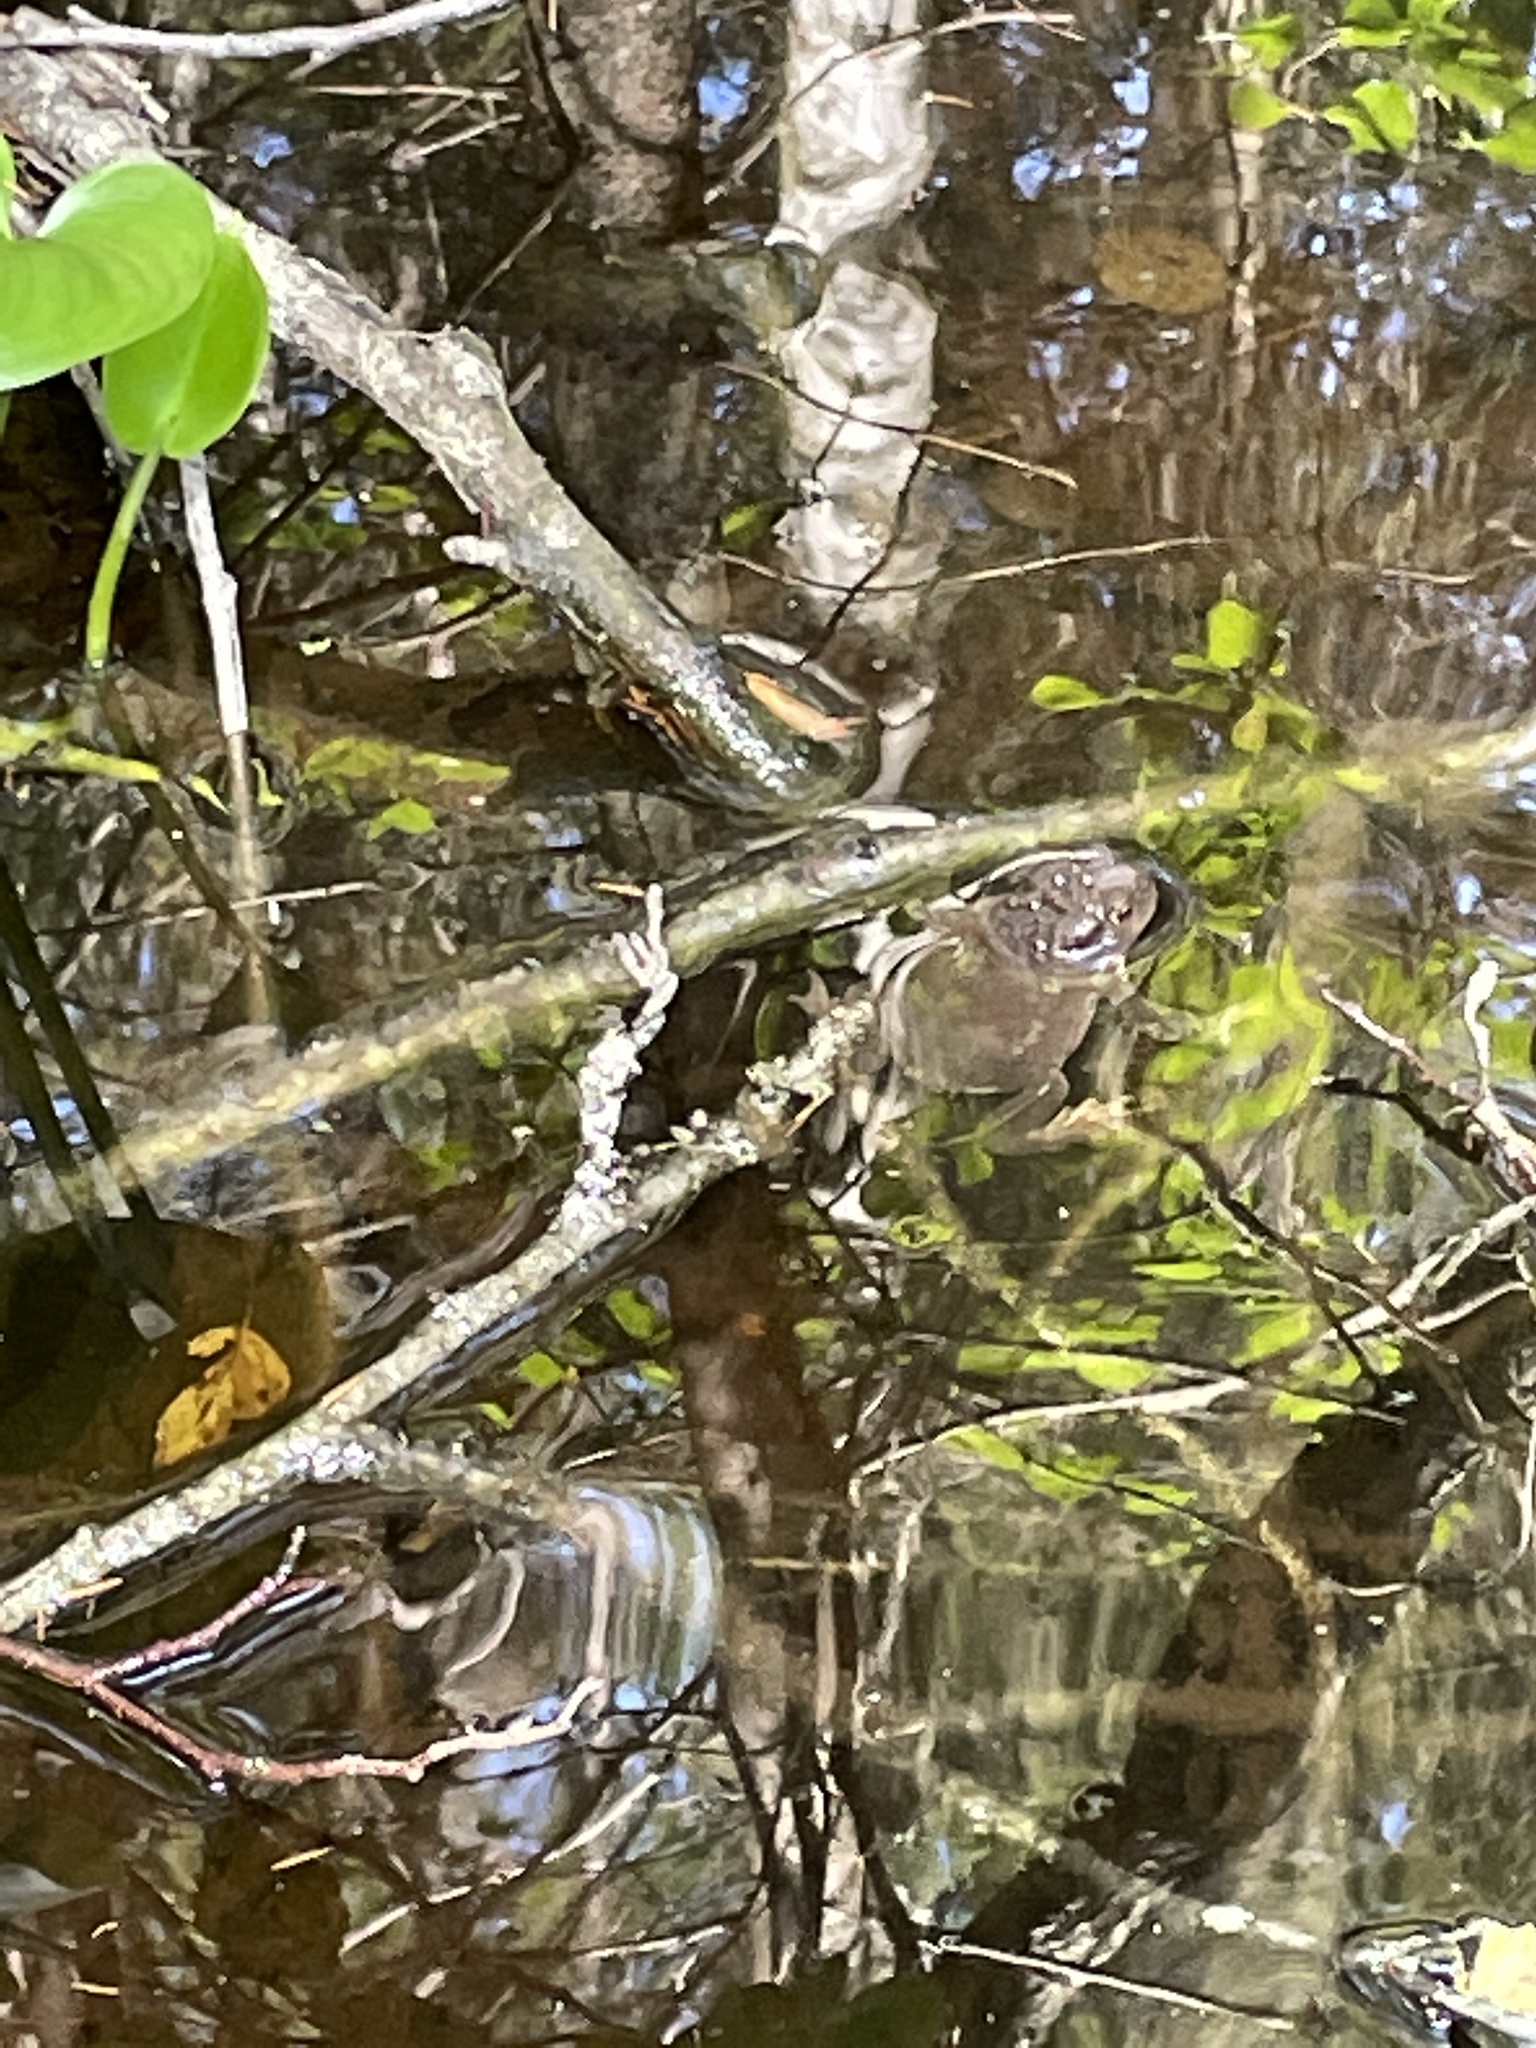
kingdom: Animalia
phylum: Chordata
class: Amphibia
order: Anura
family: Bufonidae
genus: Bufo
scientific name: Bufo bufo
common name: Common toad
